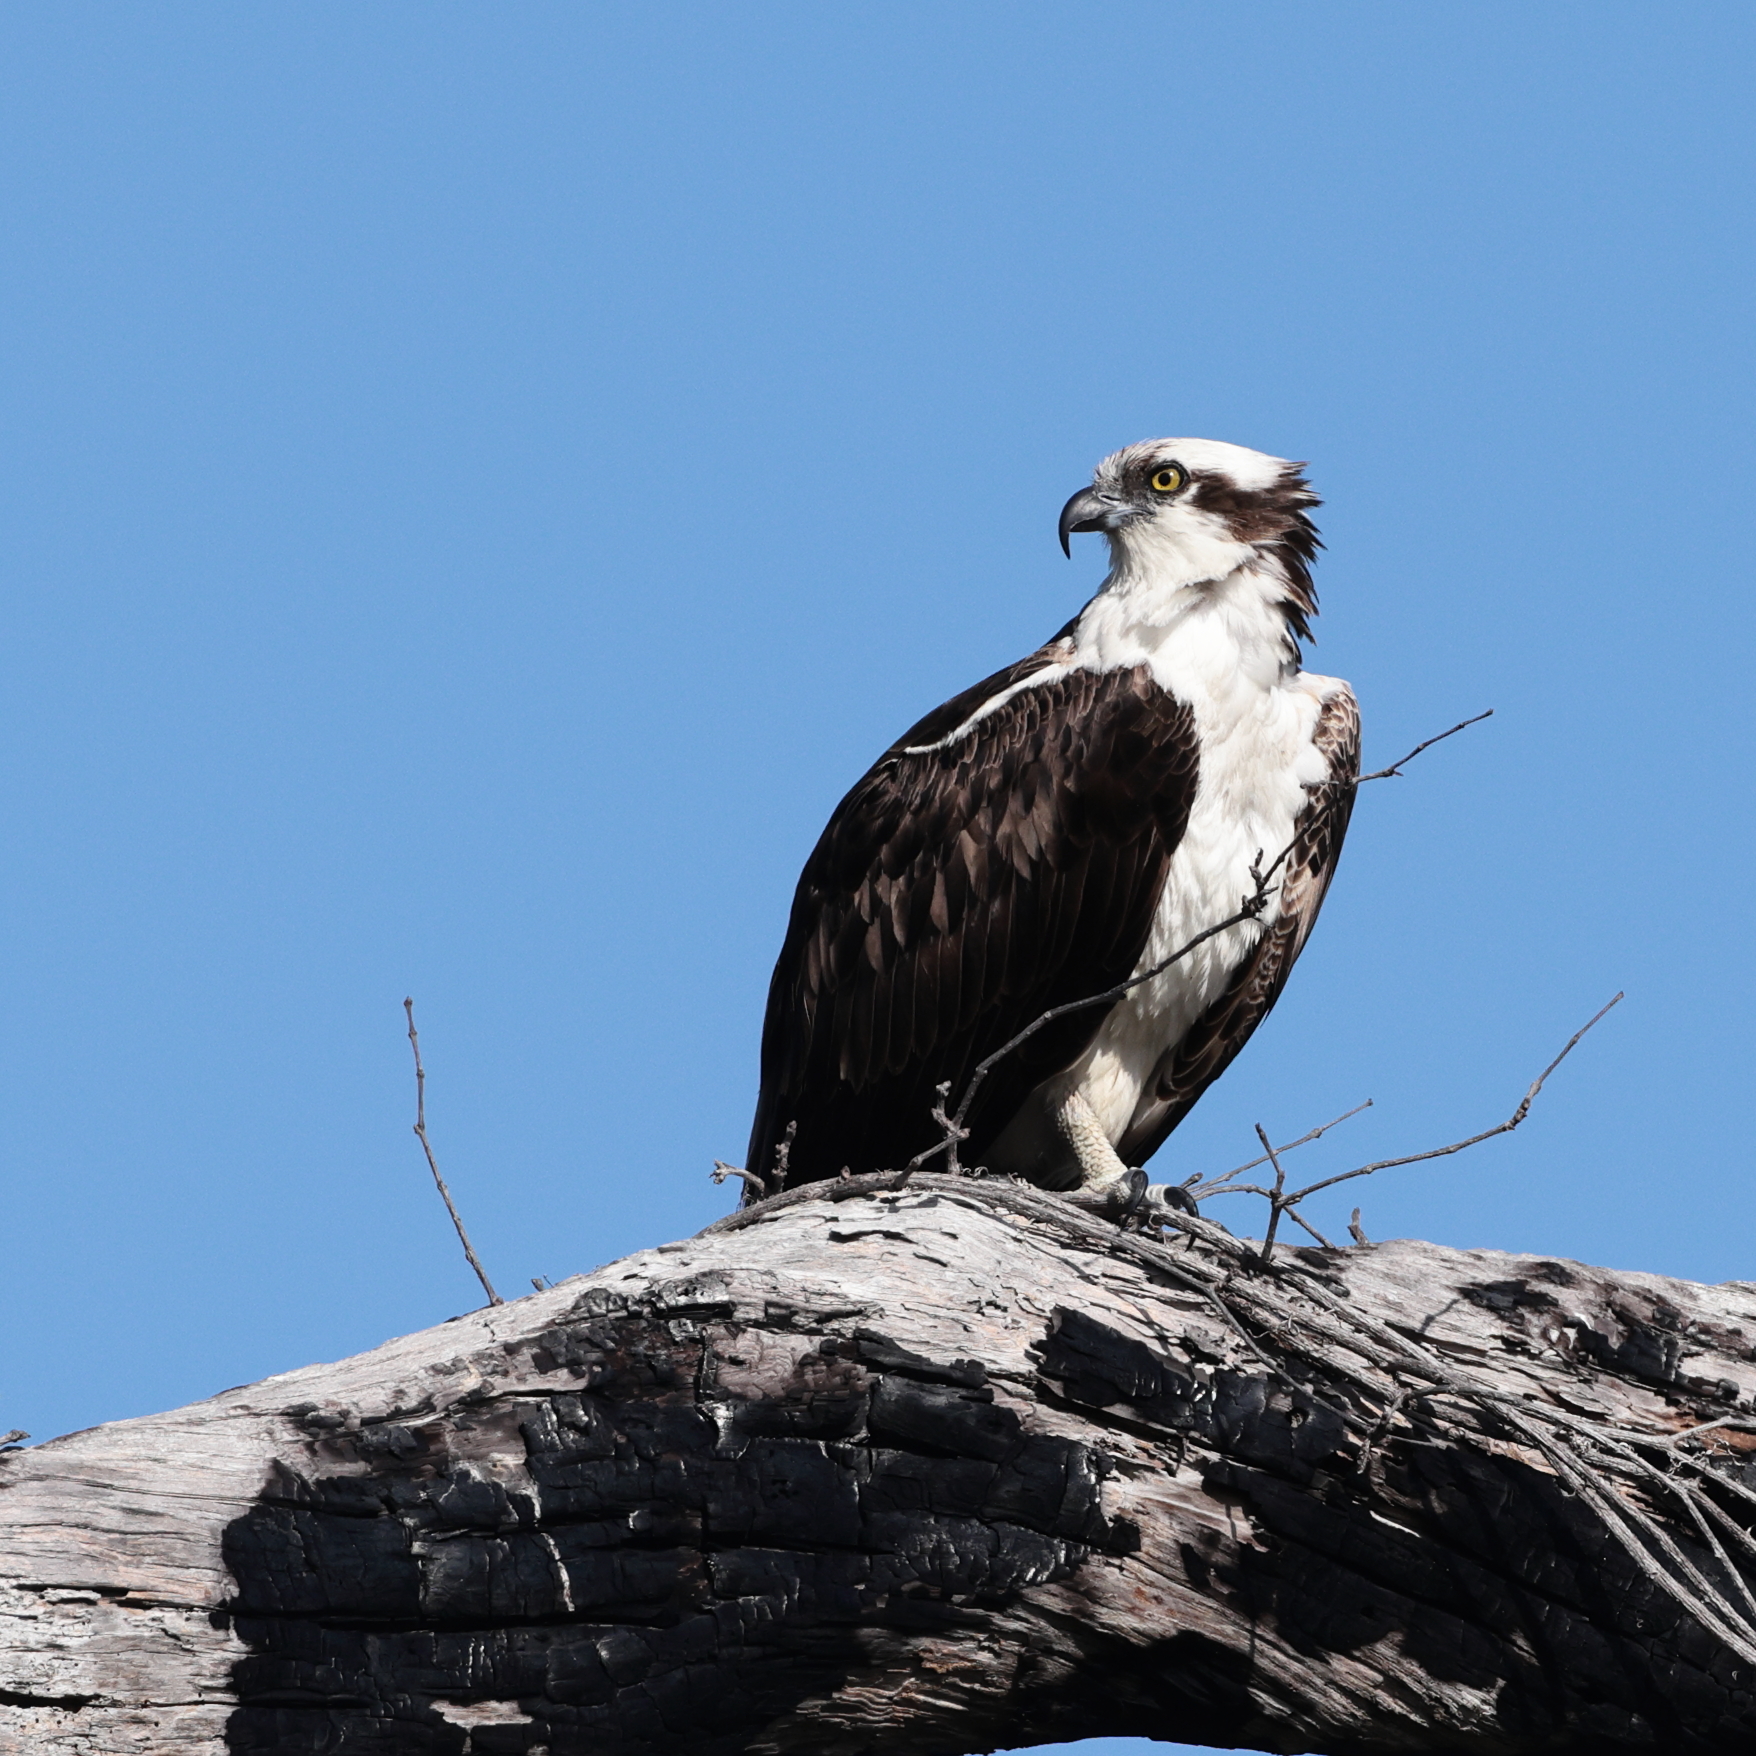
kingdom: Animalia
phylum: Chordata
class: Aves
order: Accipitriformes
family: Pandionidae
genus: Pandion
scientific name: Pandion haliaetus
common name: Osprey
